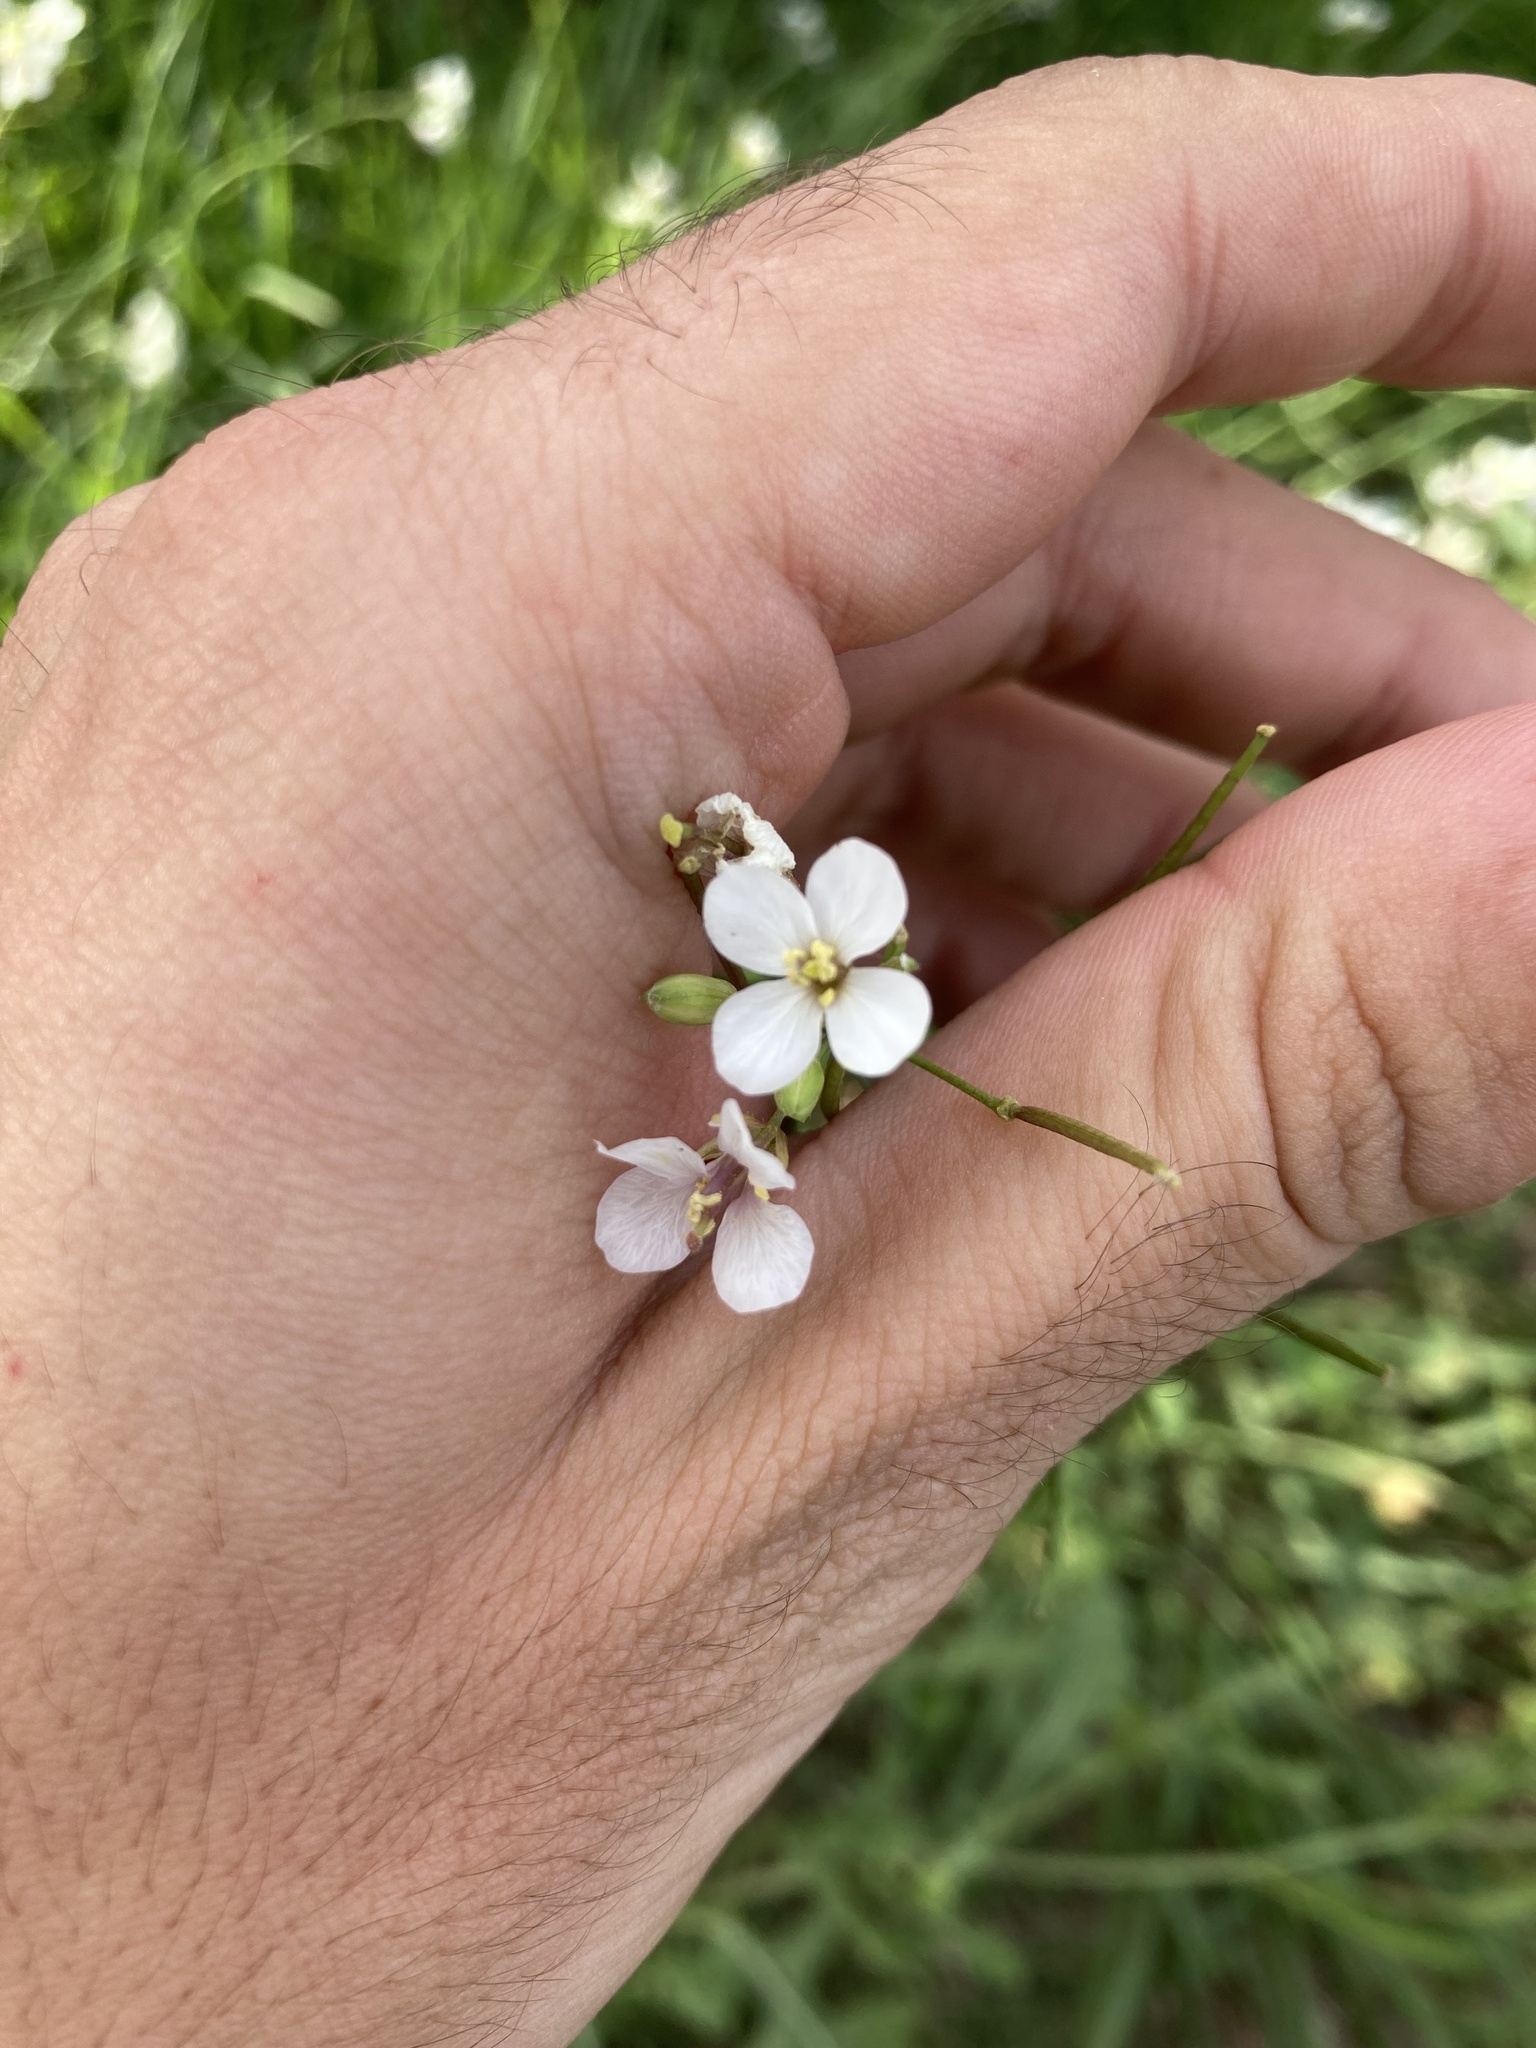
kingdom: Plantae
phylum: Tracheophyta
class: Magnoliopsida
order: Brassicales
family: Brassicaceae
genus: Diplotaxis
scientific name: Diplotaxis erucoides
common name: White rocket
